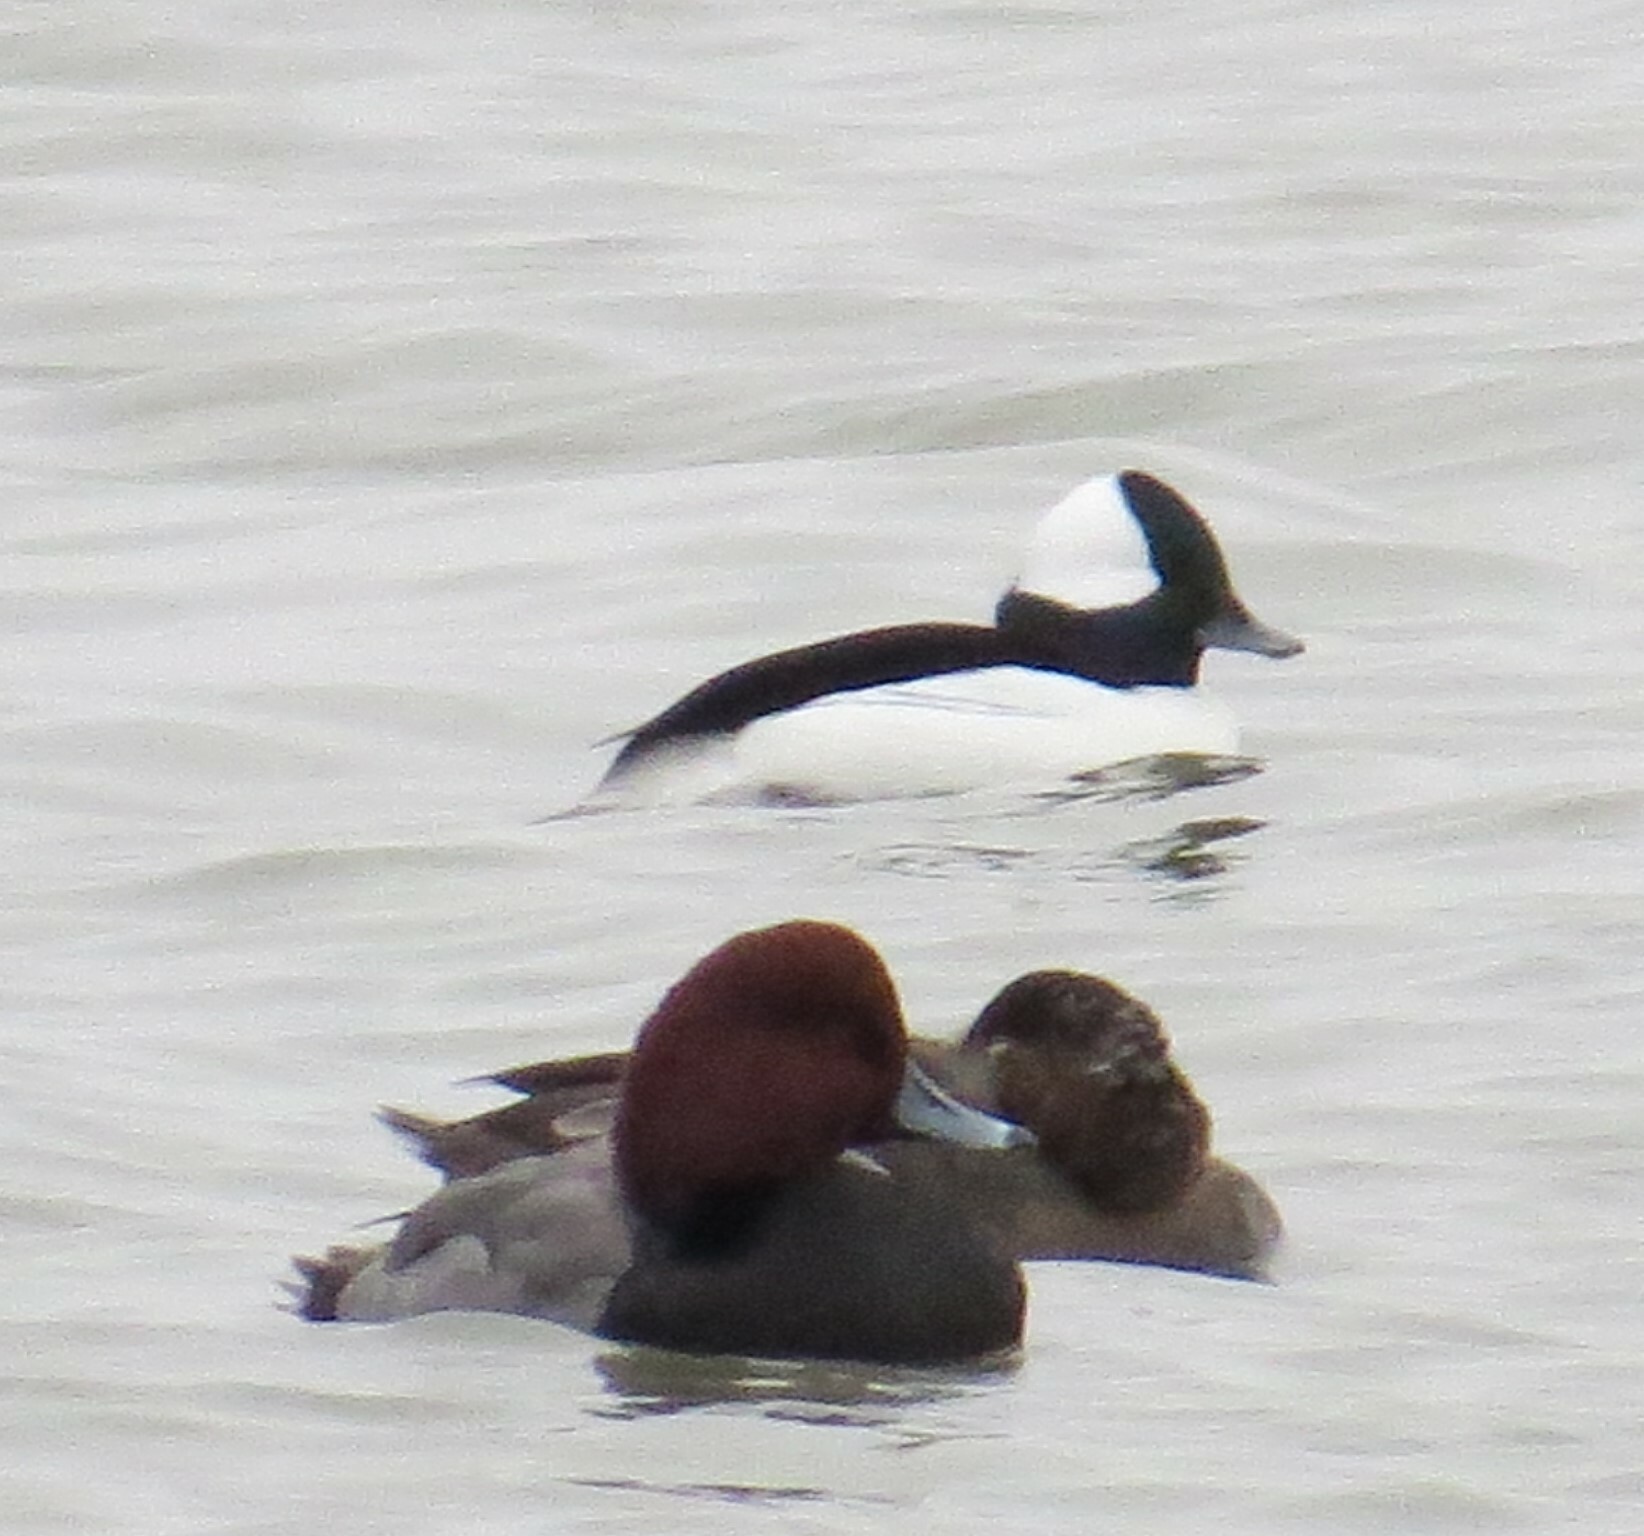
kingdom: Animalia
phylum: Chordata
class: Aves
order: Anseriformes
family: Anatidae
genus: Bucephala
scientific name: Bucephala albeola
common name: Bufflehead
